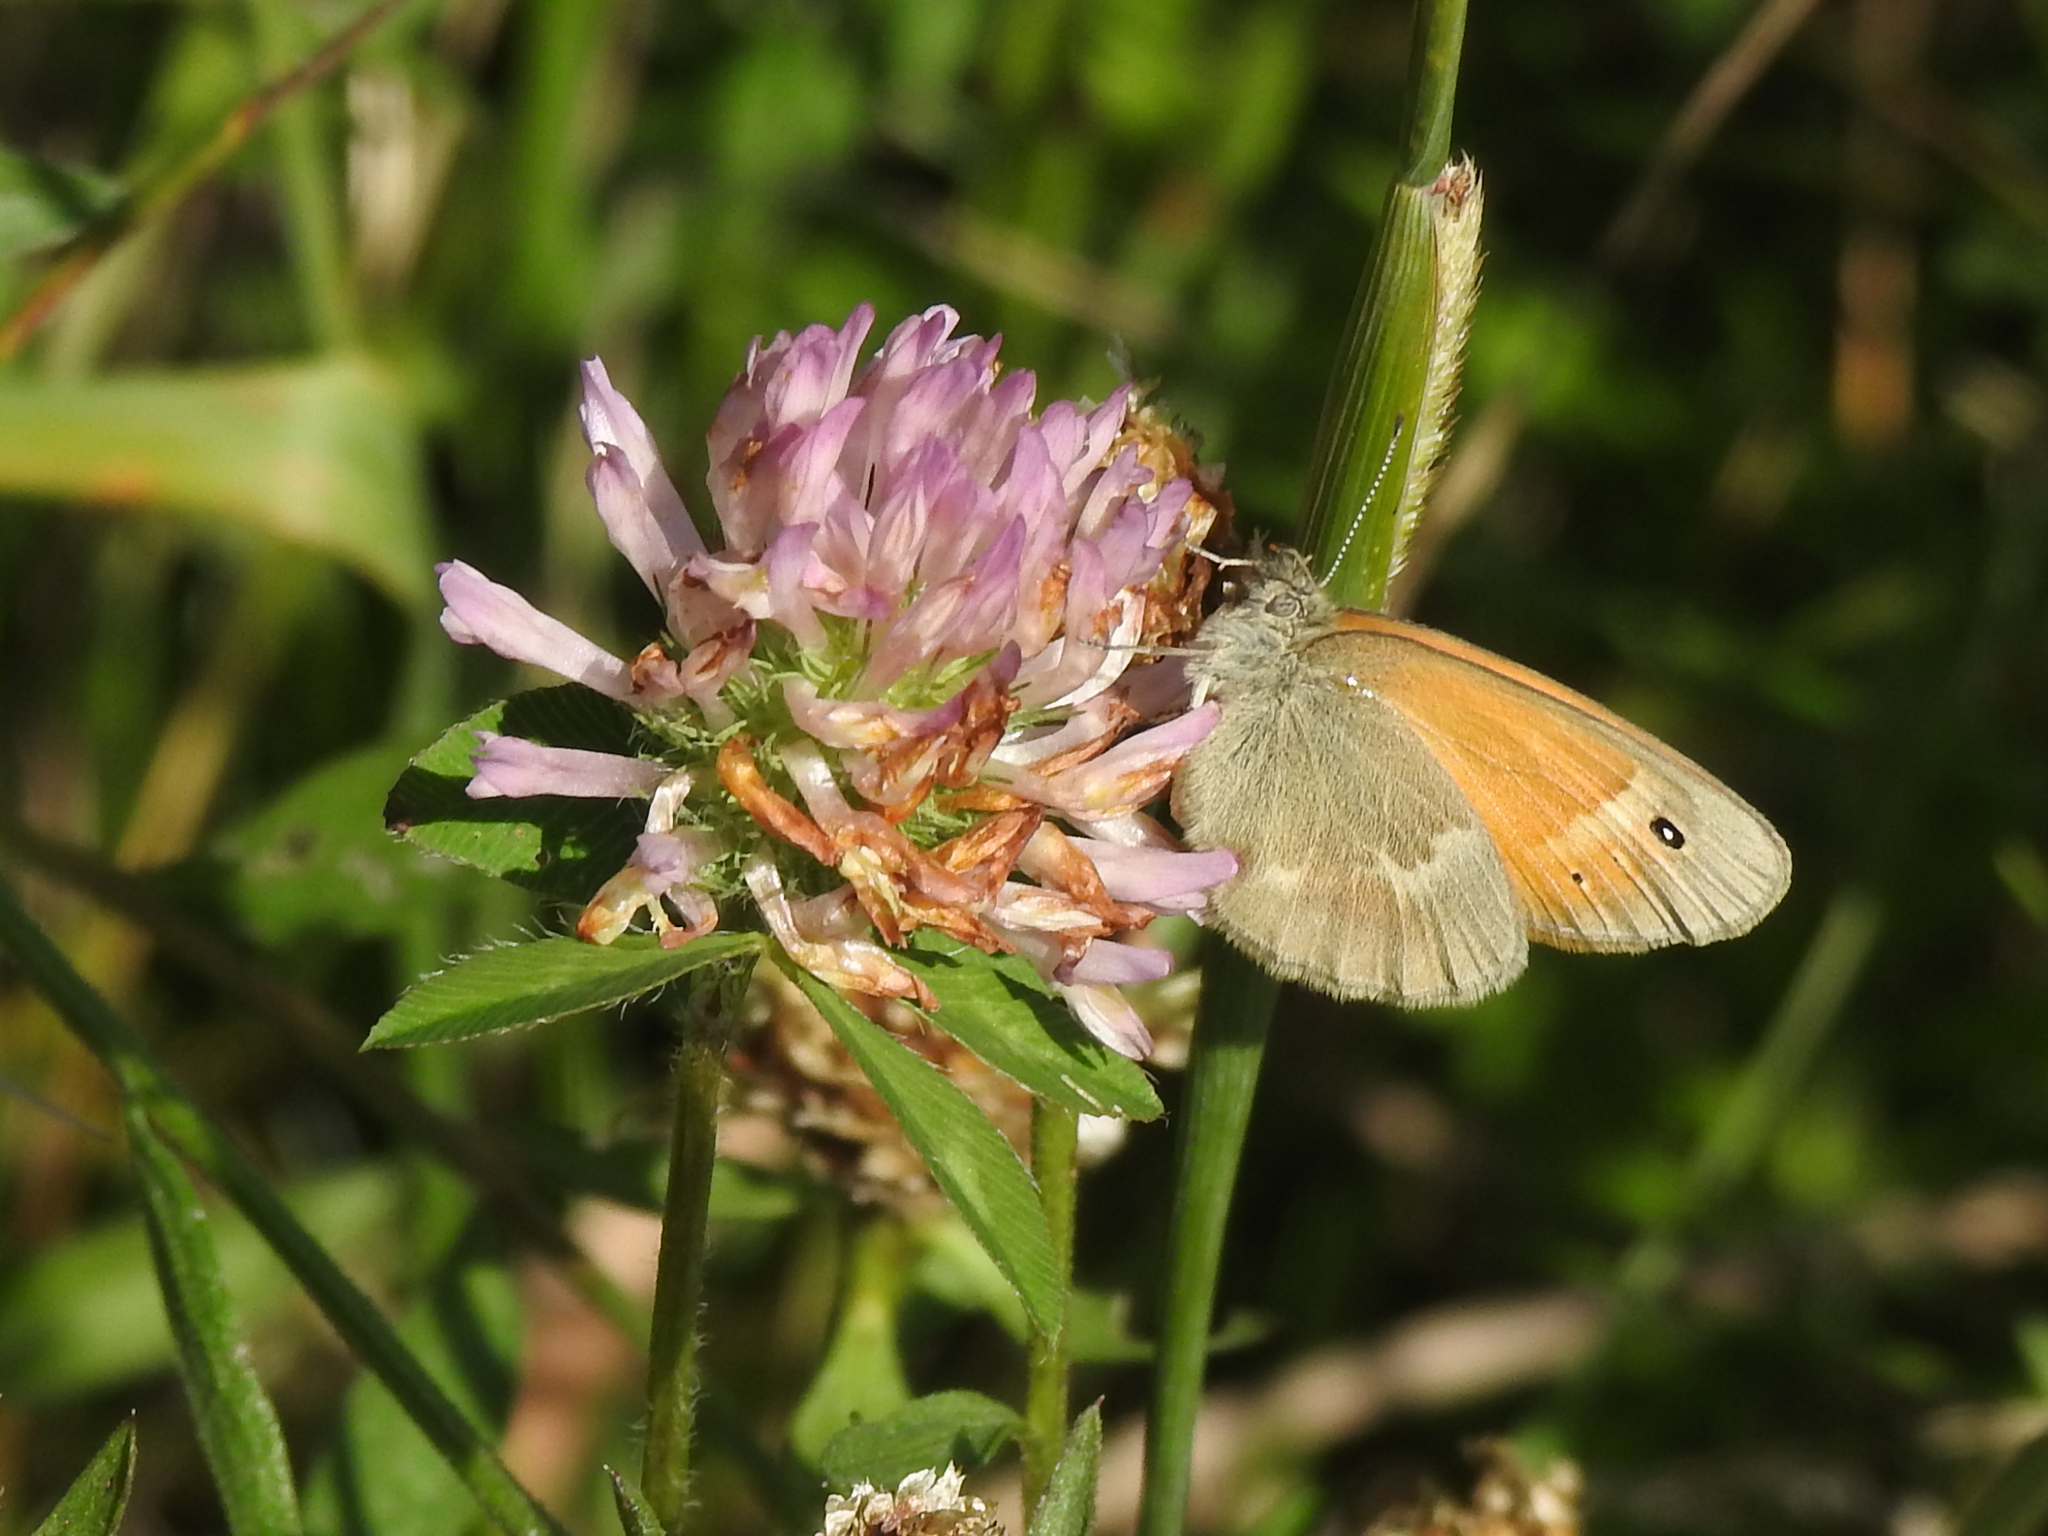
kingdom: Animalia
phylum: Arthropoda
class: Insecta
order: Lepidoptera
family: Nymphalidae
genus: Coenonympha
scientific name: Coenonympha california
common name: Common ringlet
